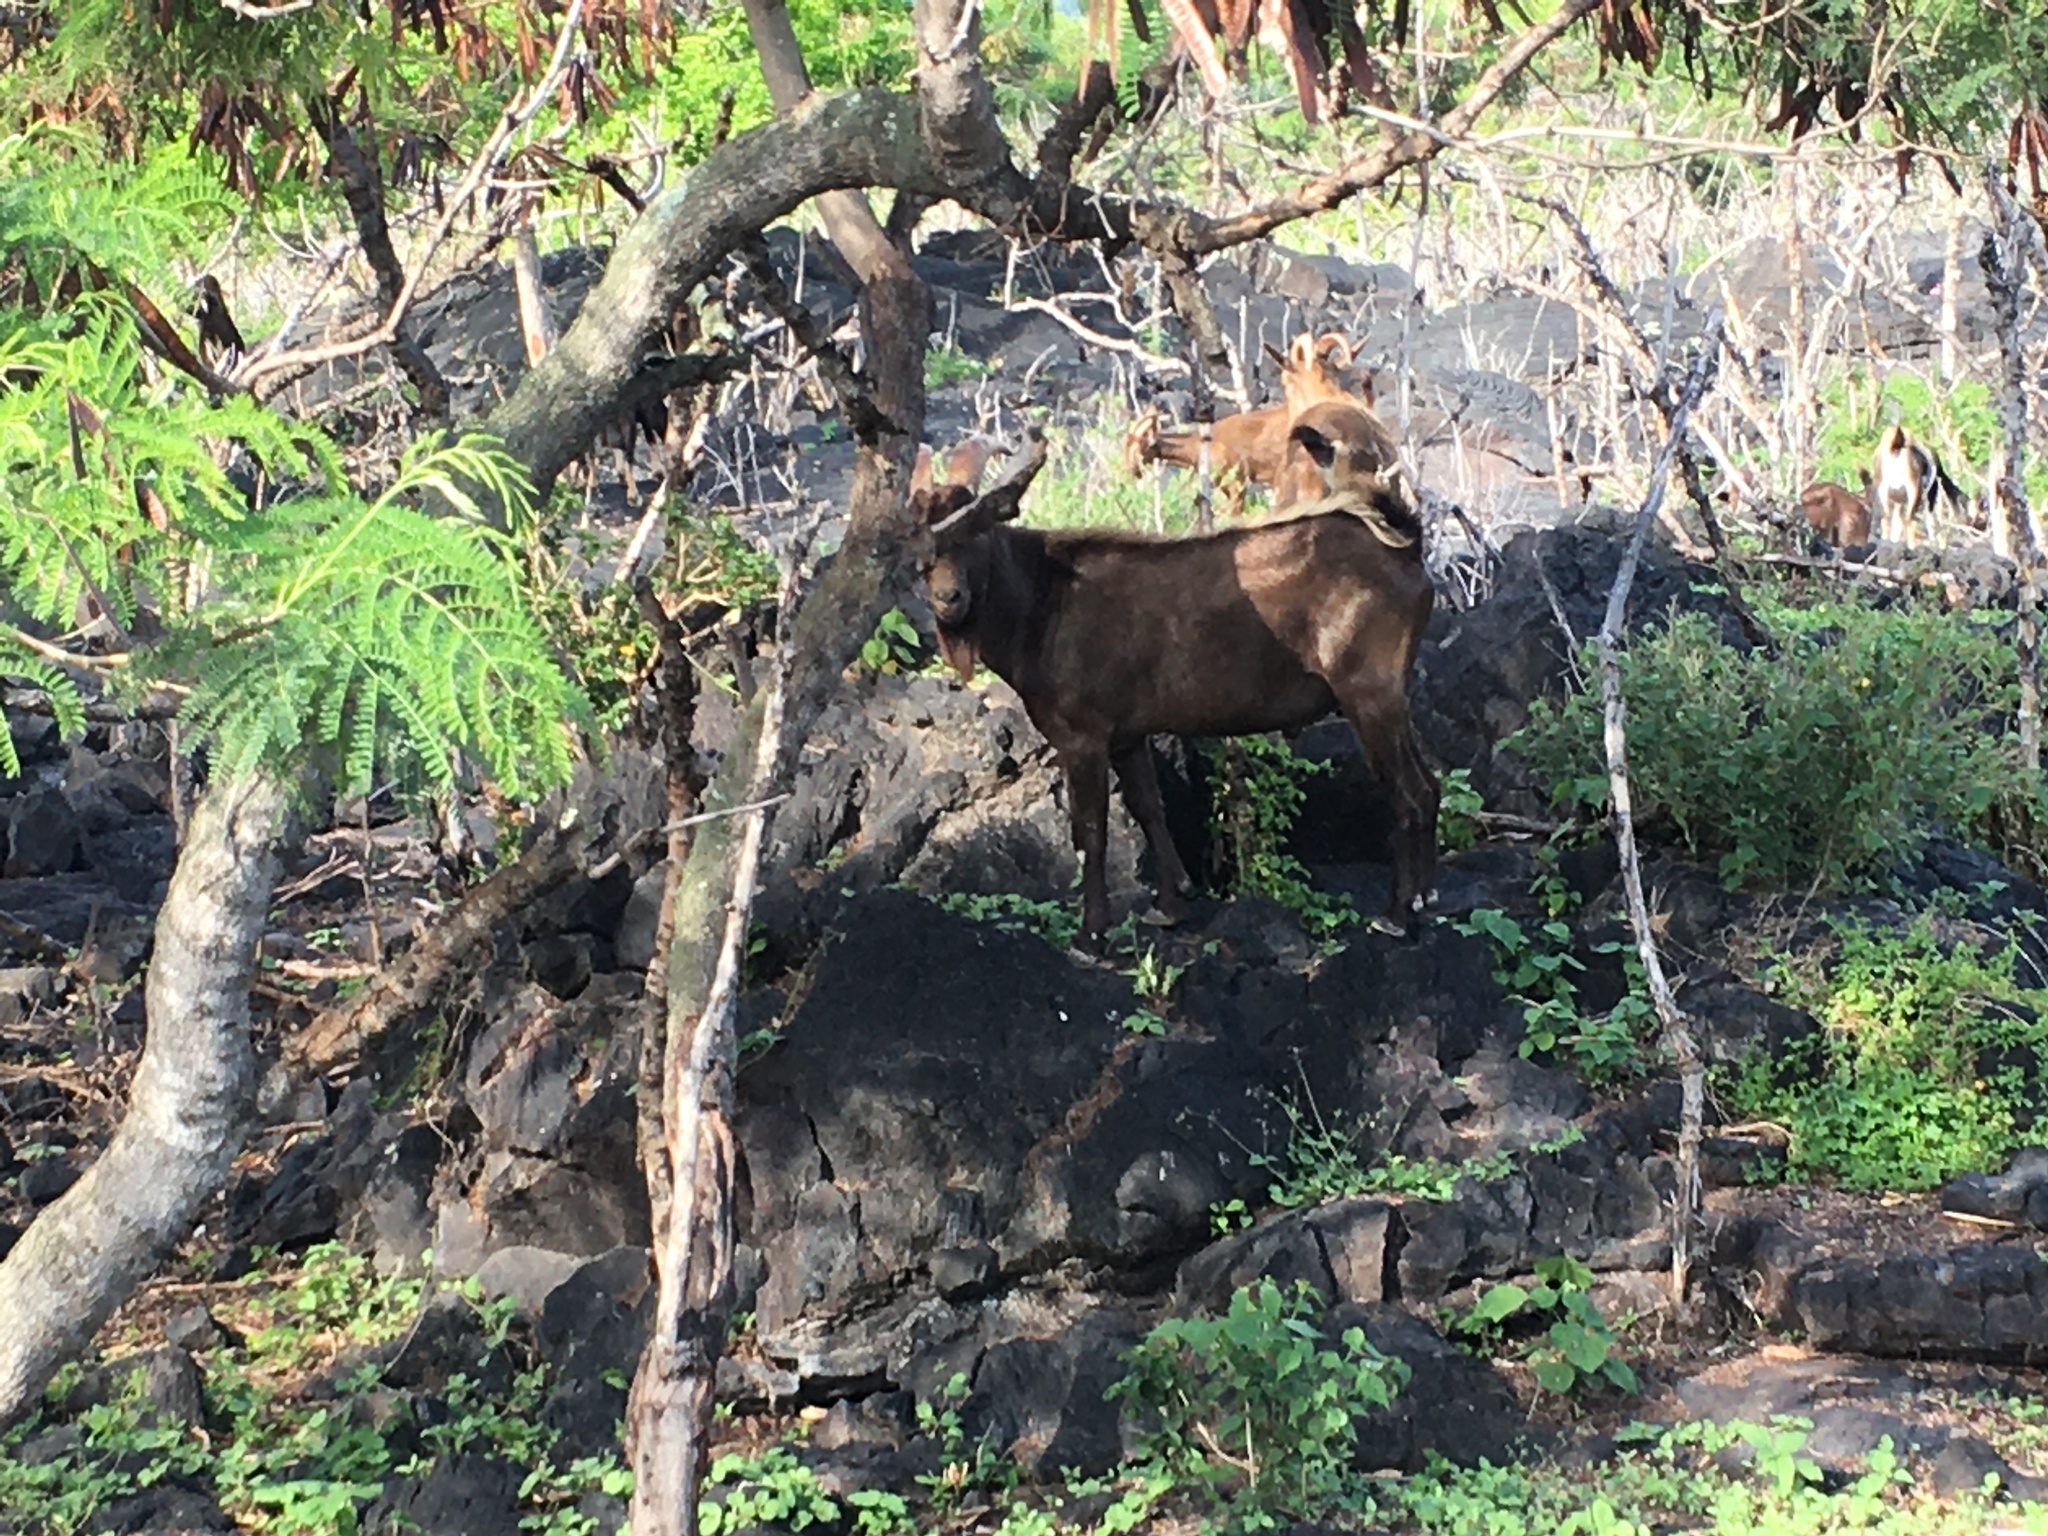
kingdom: Animalia
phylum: Chordata
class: Mammalia
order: Artiodactyla
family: Bovidae
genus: Capra
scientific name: Capra hircus
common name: Domestic goat
